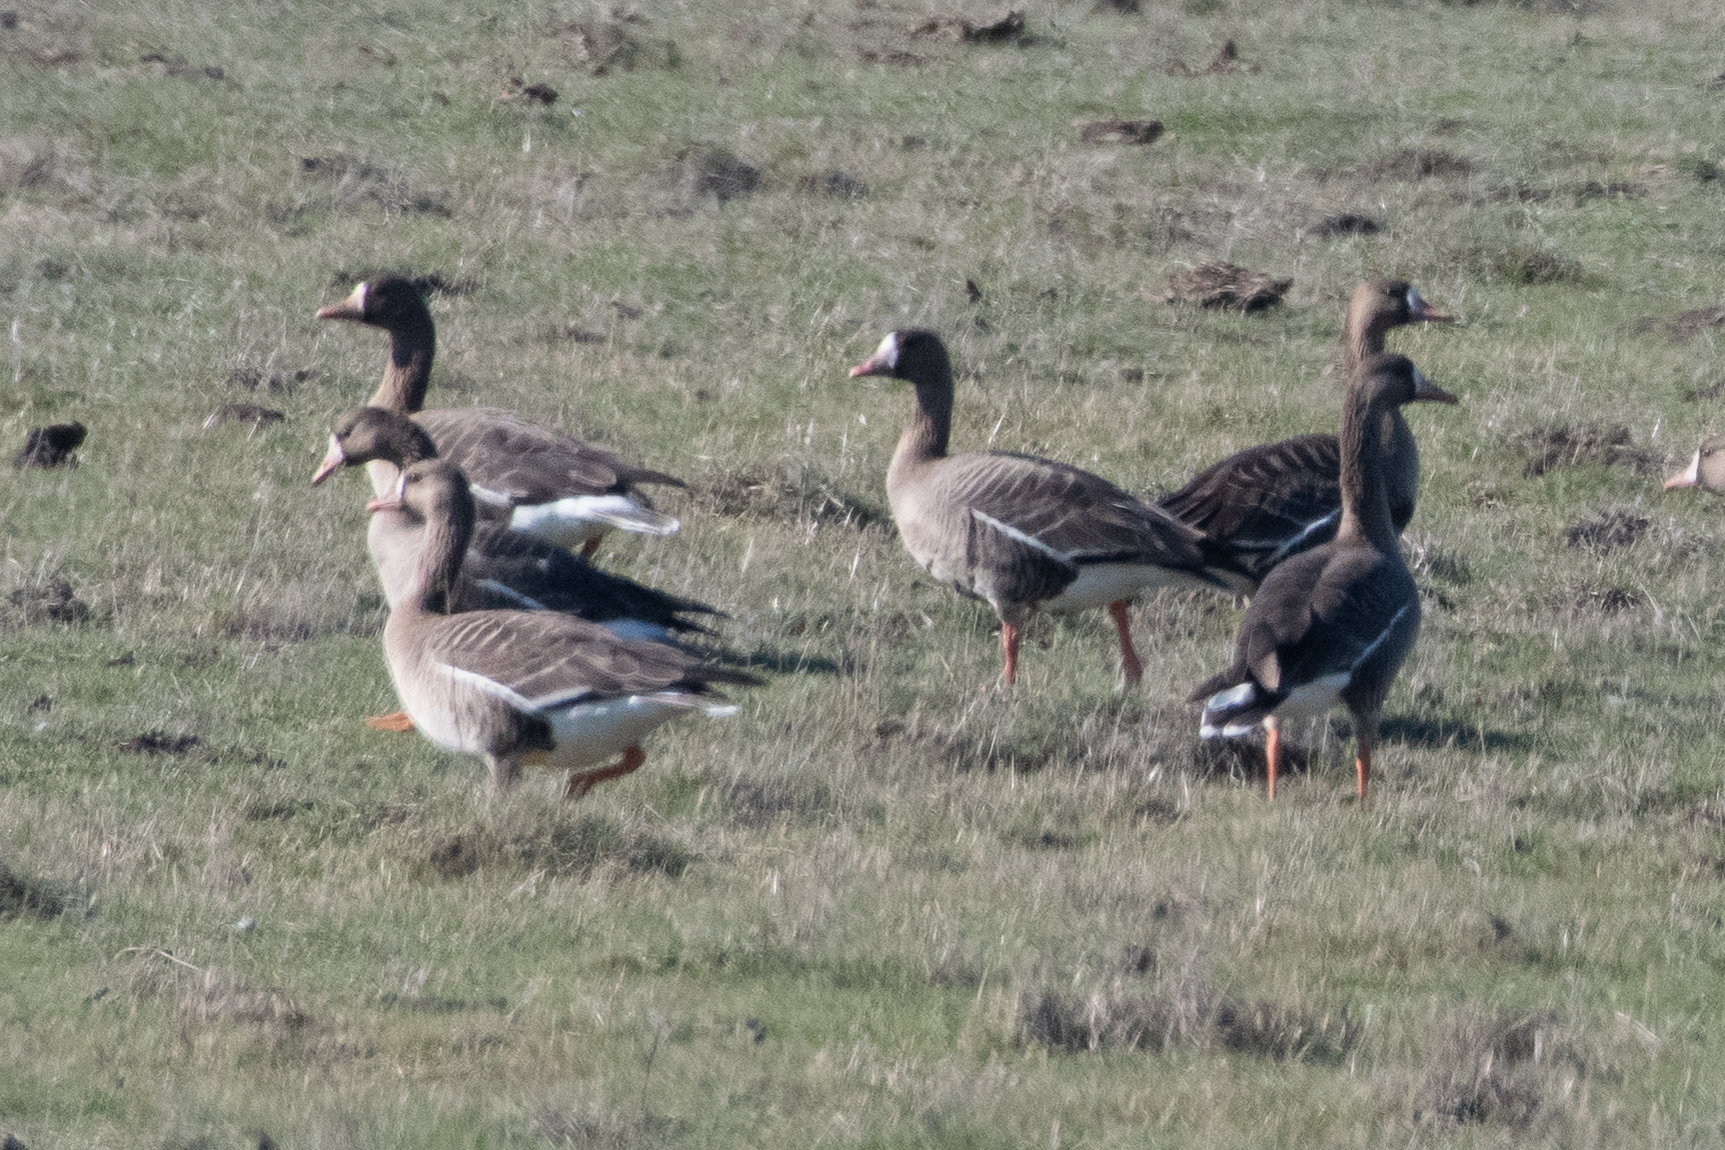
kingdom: Animalia
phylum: Chordata
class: Aves
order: Anseriformes
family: Anatidae
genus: Anser
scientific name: Anser albifrons
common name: Greater white-fronted goose
